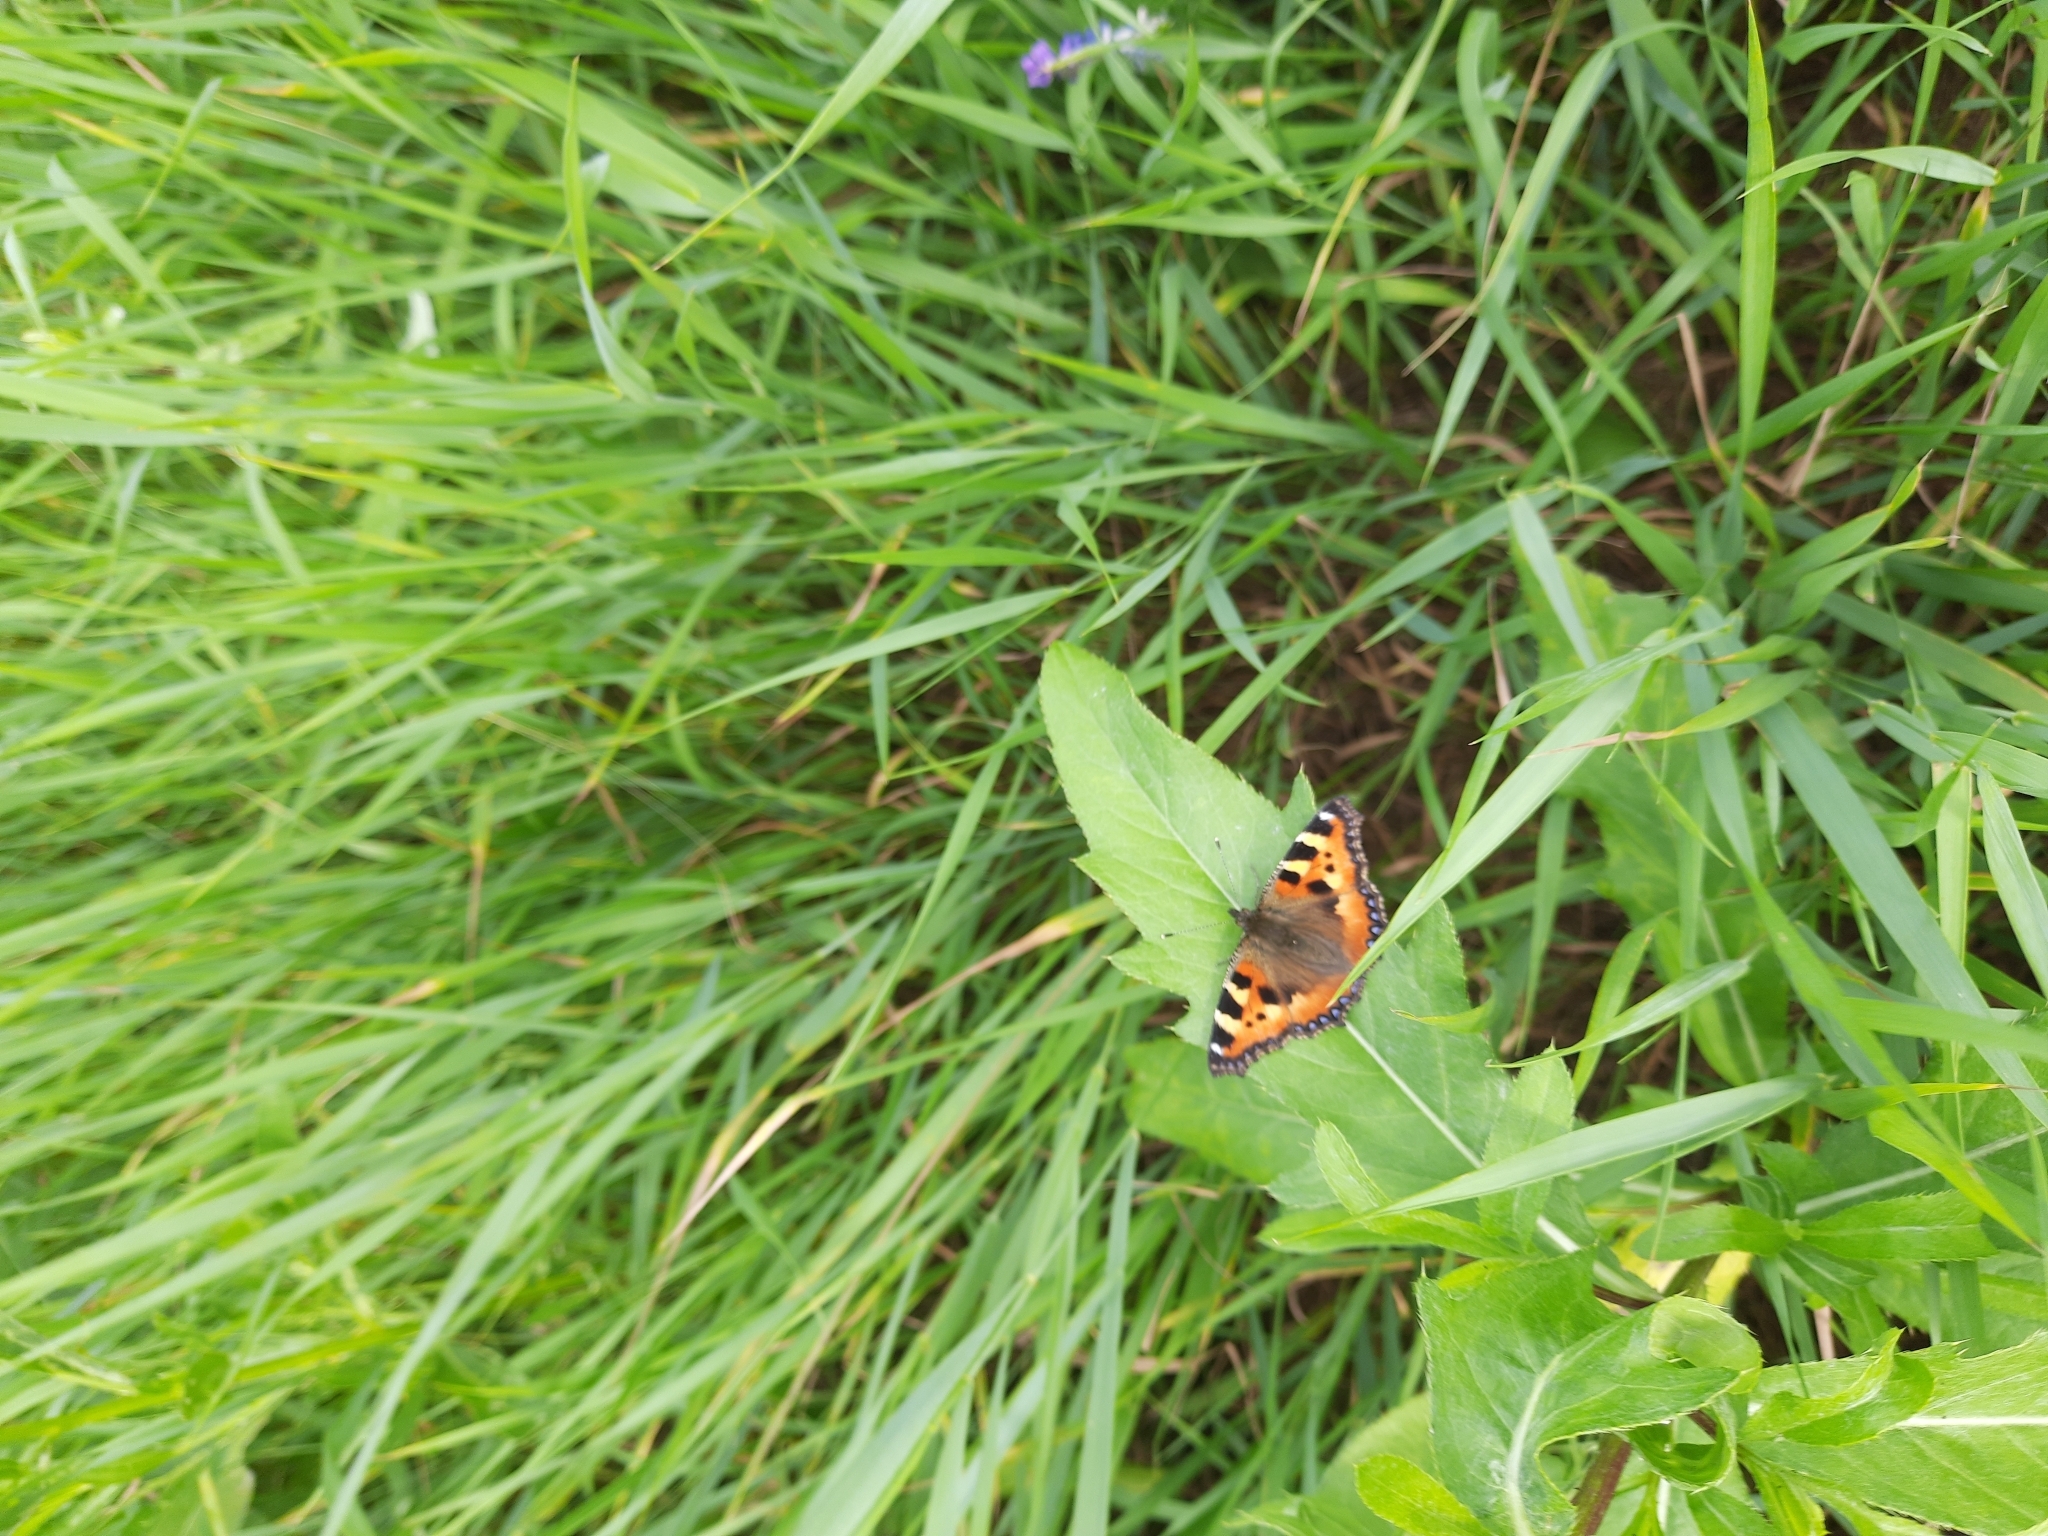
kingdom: Animalia
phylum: Arthropoda
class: Insecta
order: Lepidoptera
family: Nymphalidae
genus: Aglais
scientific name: Aglais urticae
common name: Small tortoiseshell
